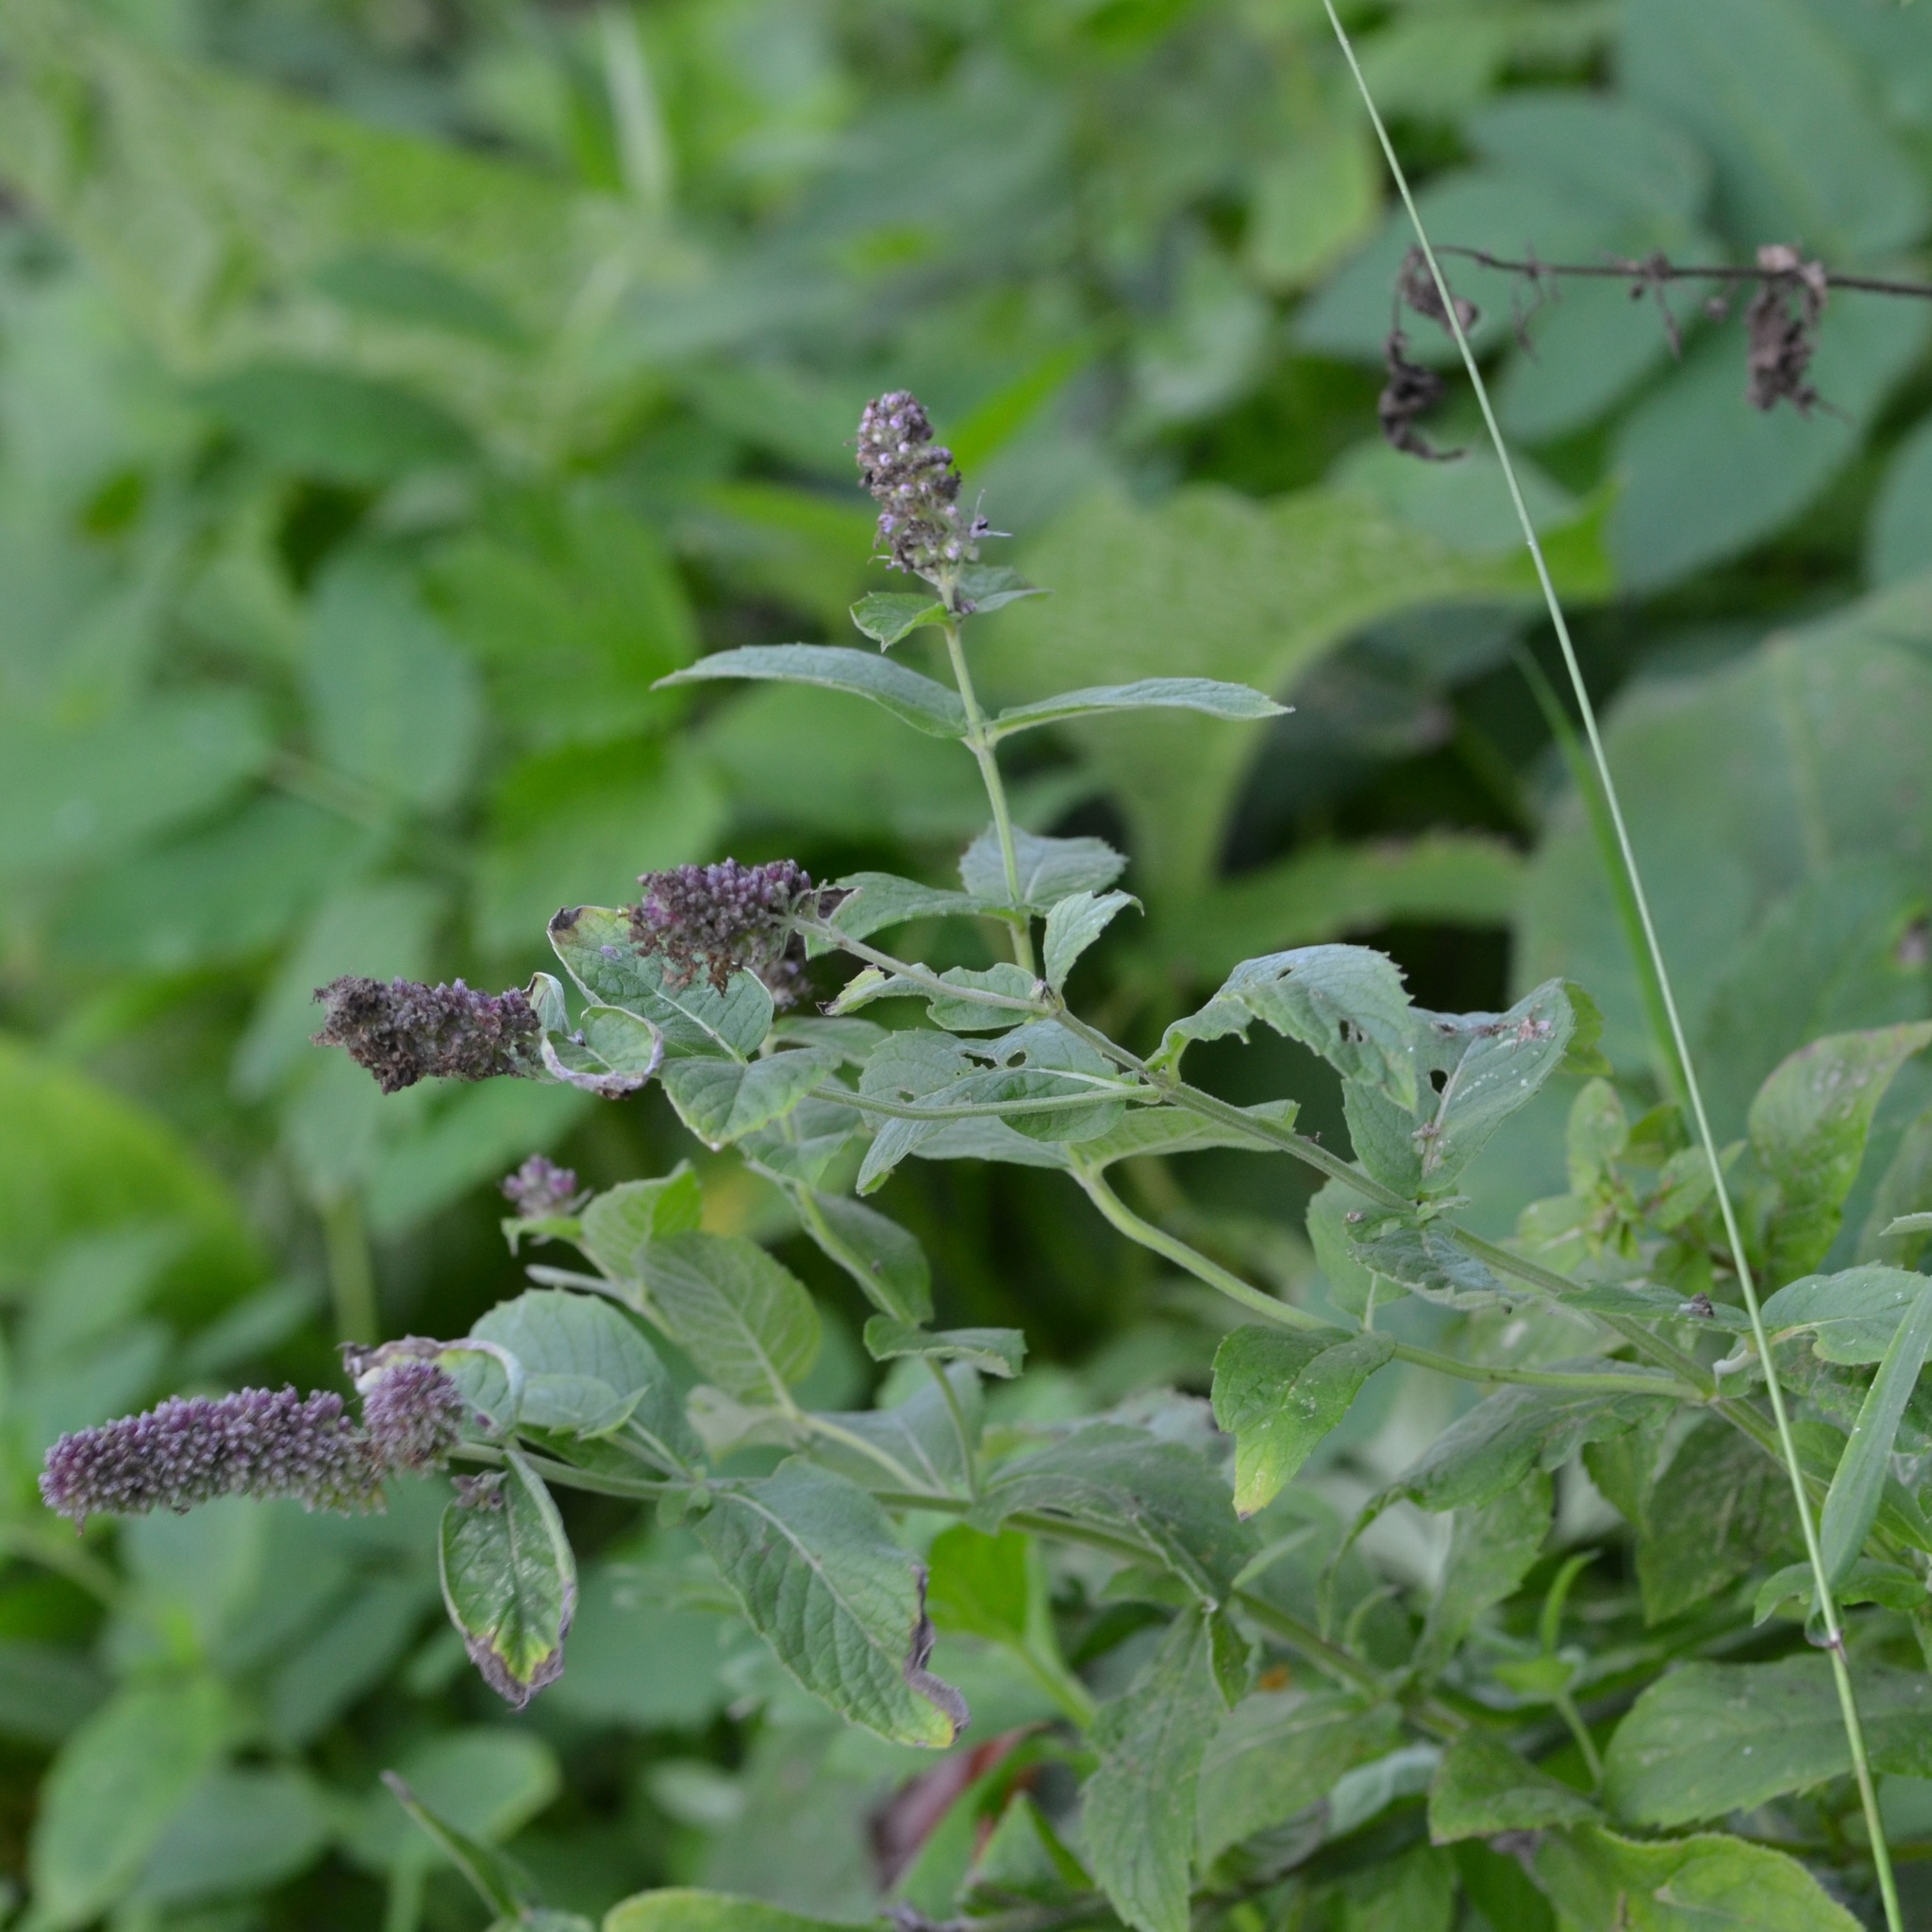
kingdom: Plantae
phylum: Tracheophyta
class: Magnoliopsida
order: Lamiales
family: Lamiaceae
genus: Mentha
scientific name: Mentha longifolia
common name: Horse mint
